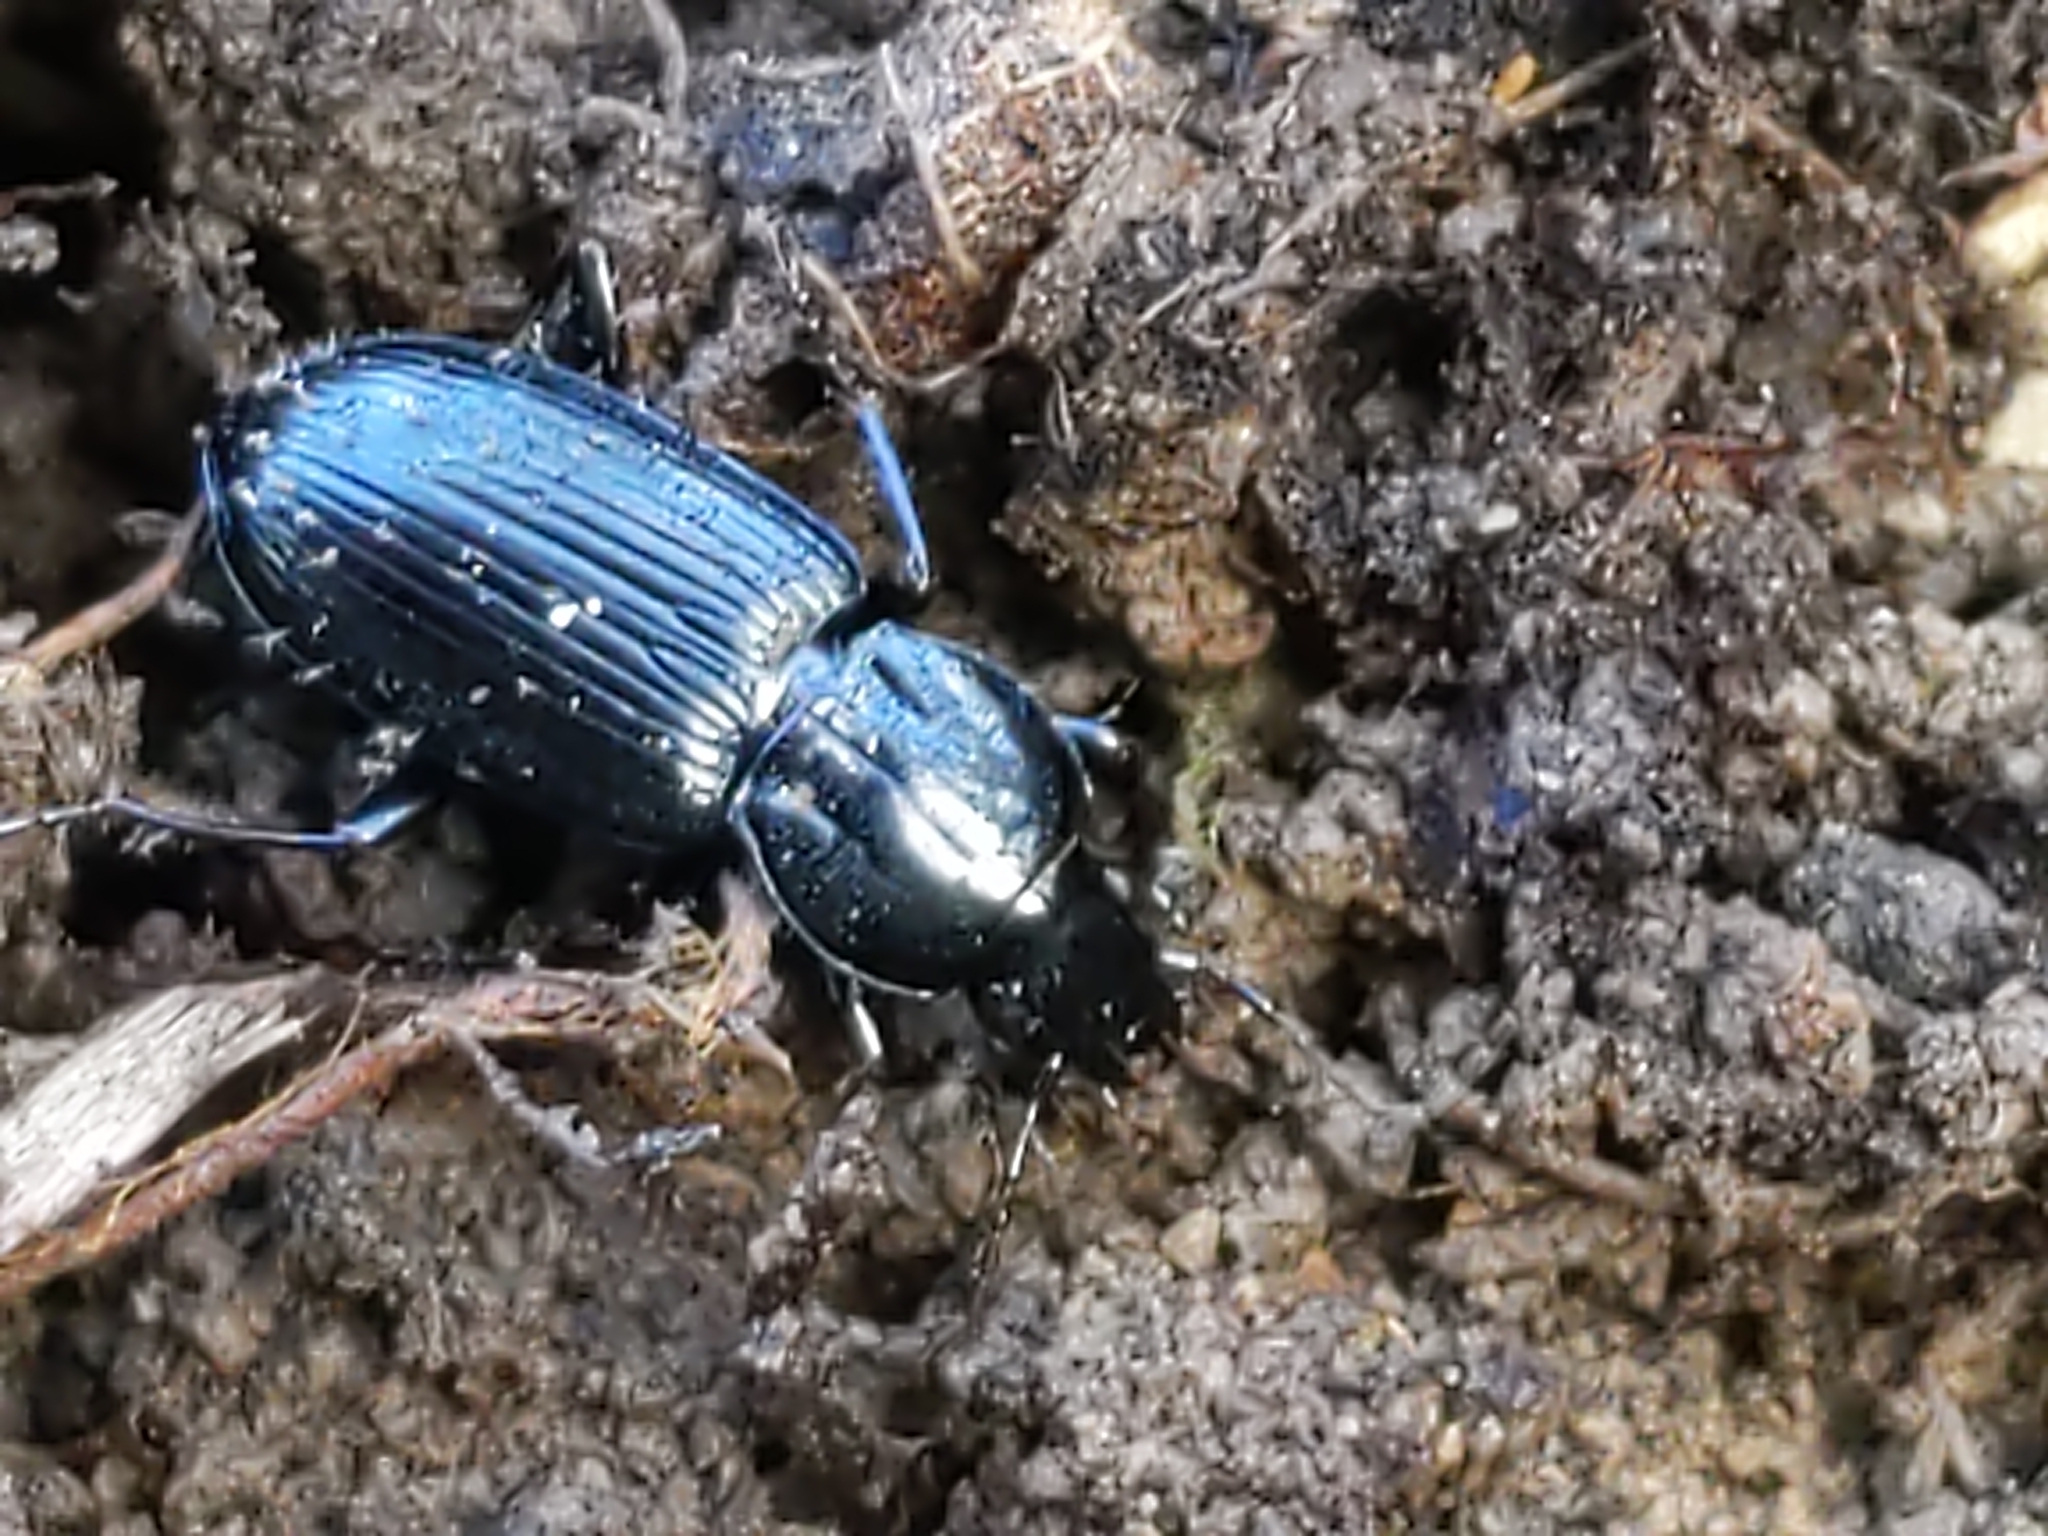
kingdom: Animalia
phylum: Arthropoda
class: Insecta
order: Coleoptera
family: Carabidae
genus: Pterostichus
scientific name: Pterostichus mutus
